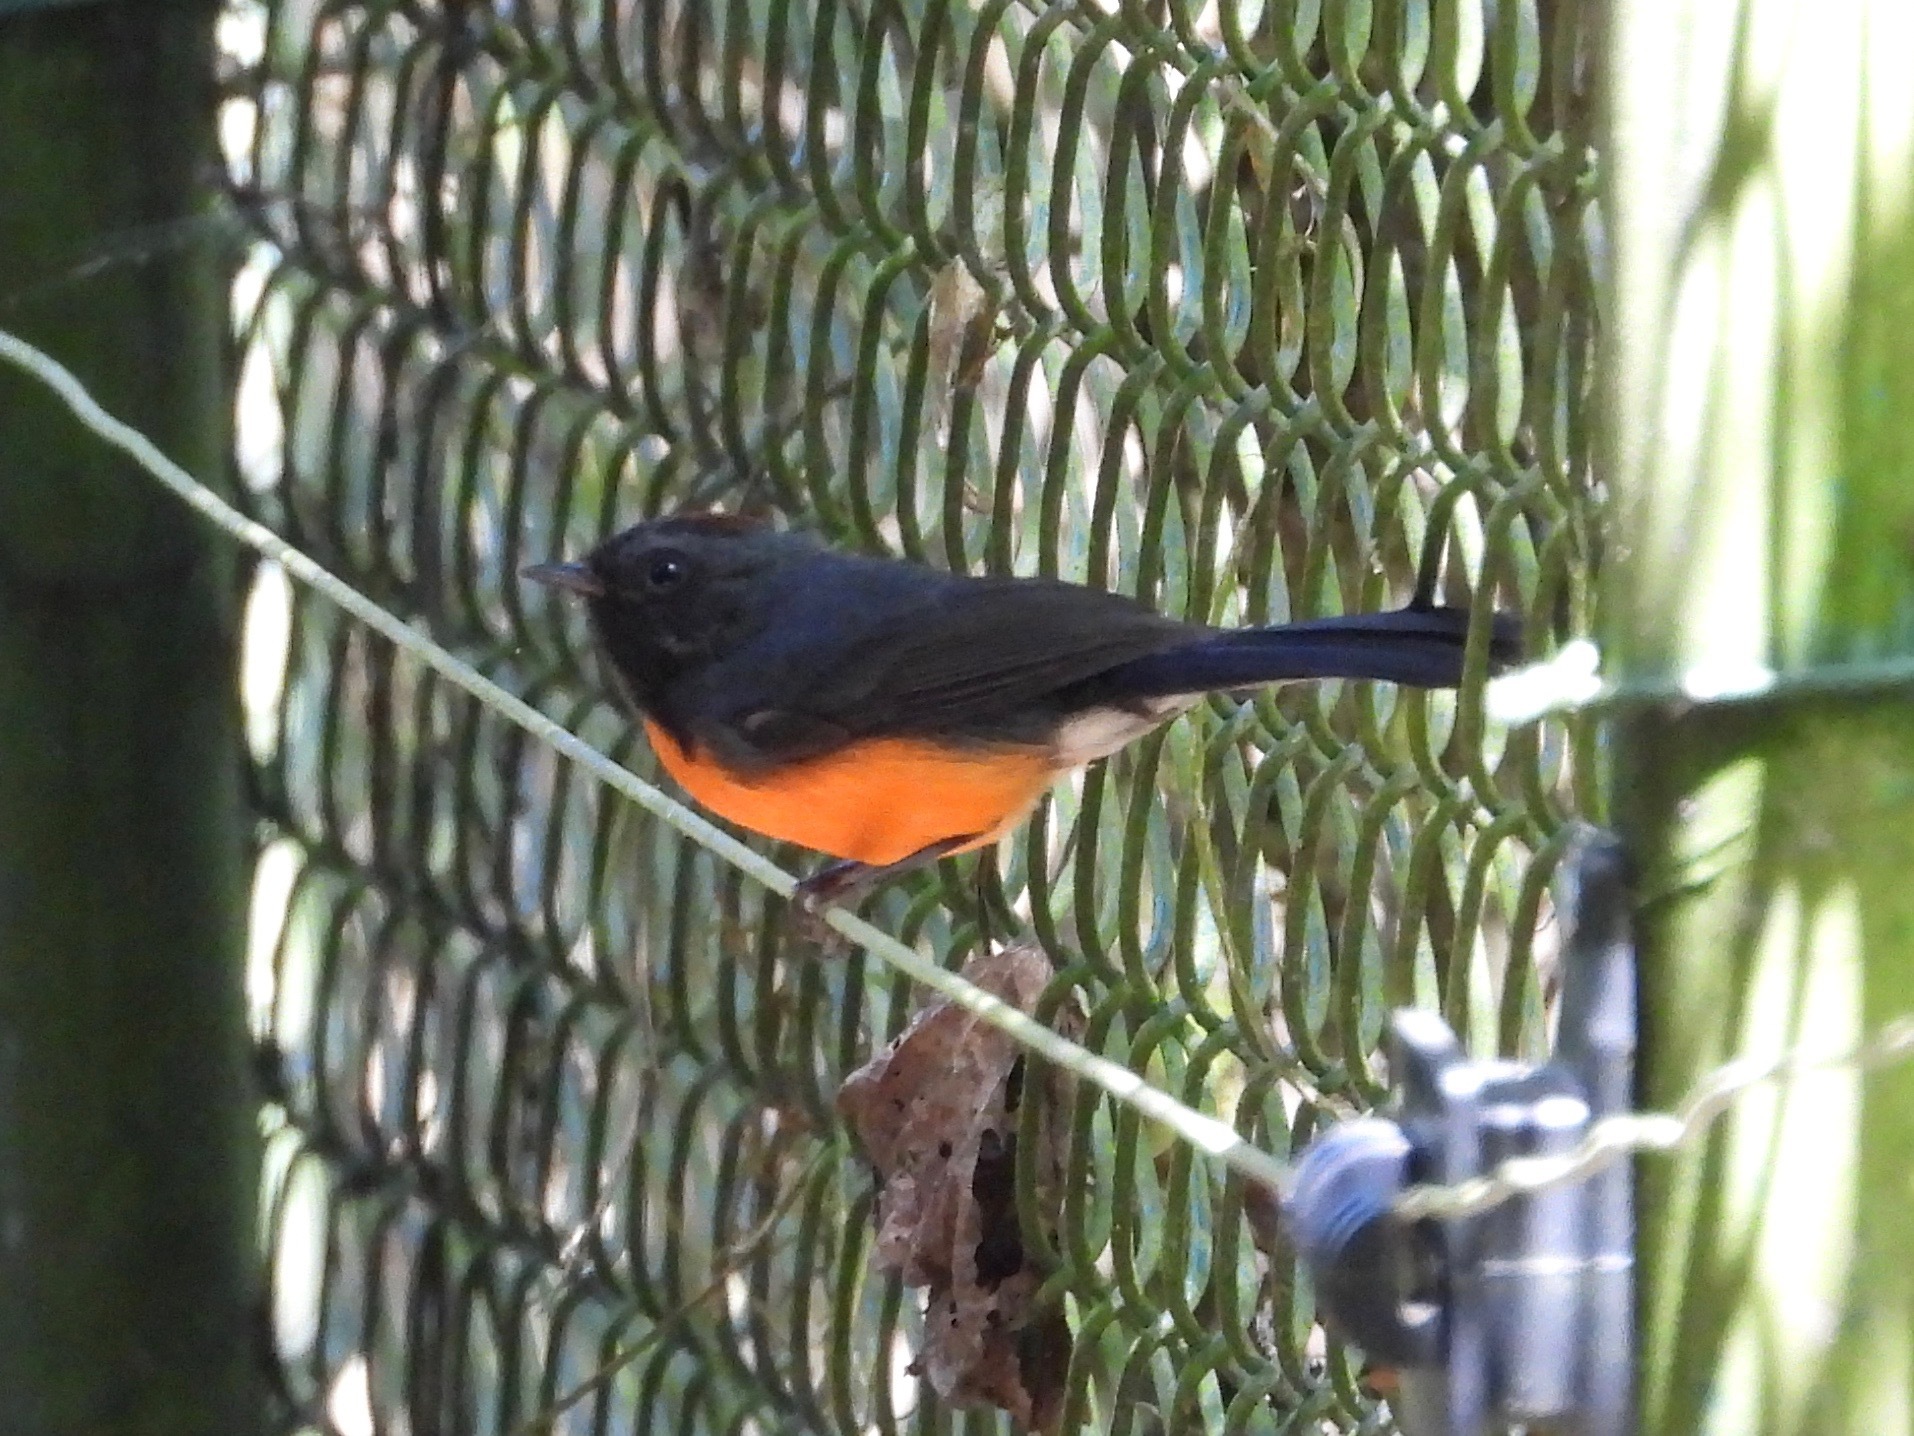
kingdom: Animalia
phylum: Chordata
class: Aves
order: Passeriformes
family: Parulidae
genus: Myioborus
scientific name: Myioborus miniatus
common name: Slate-throated redstart
